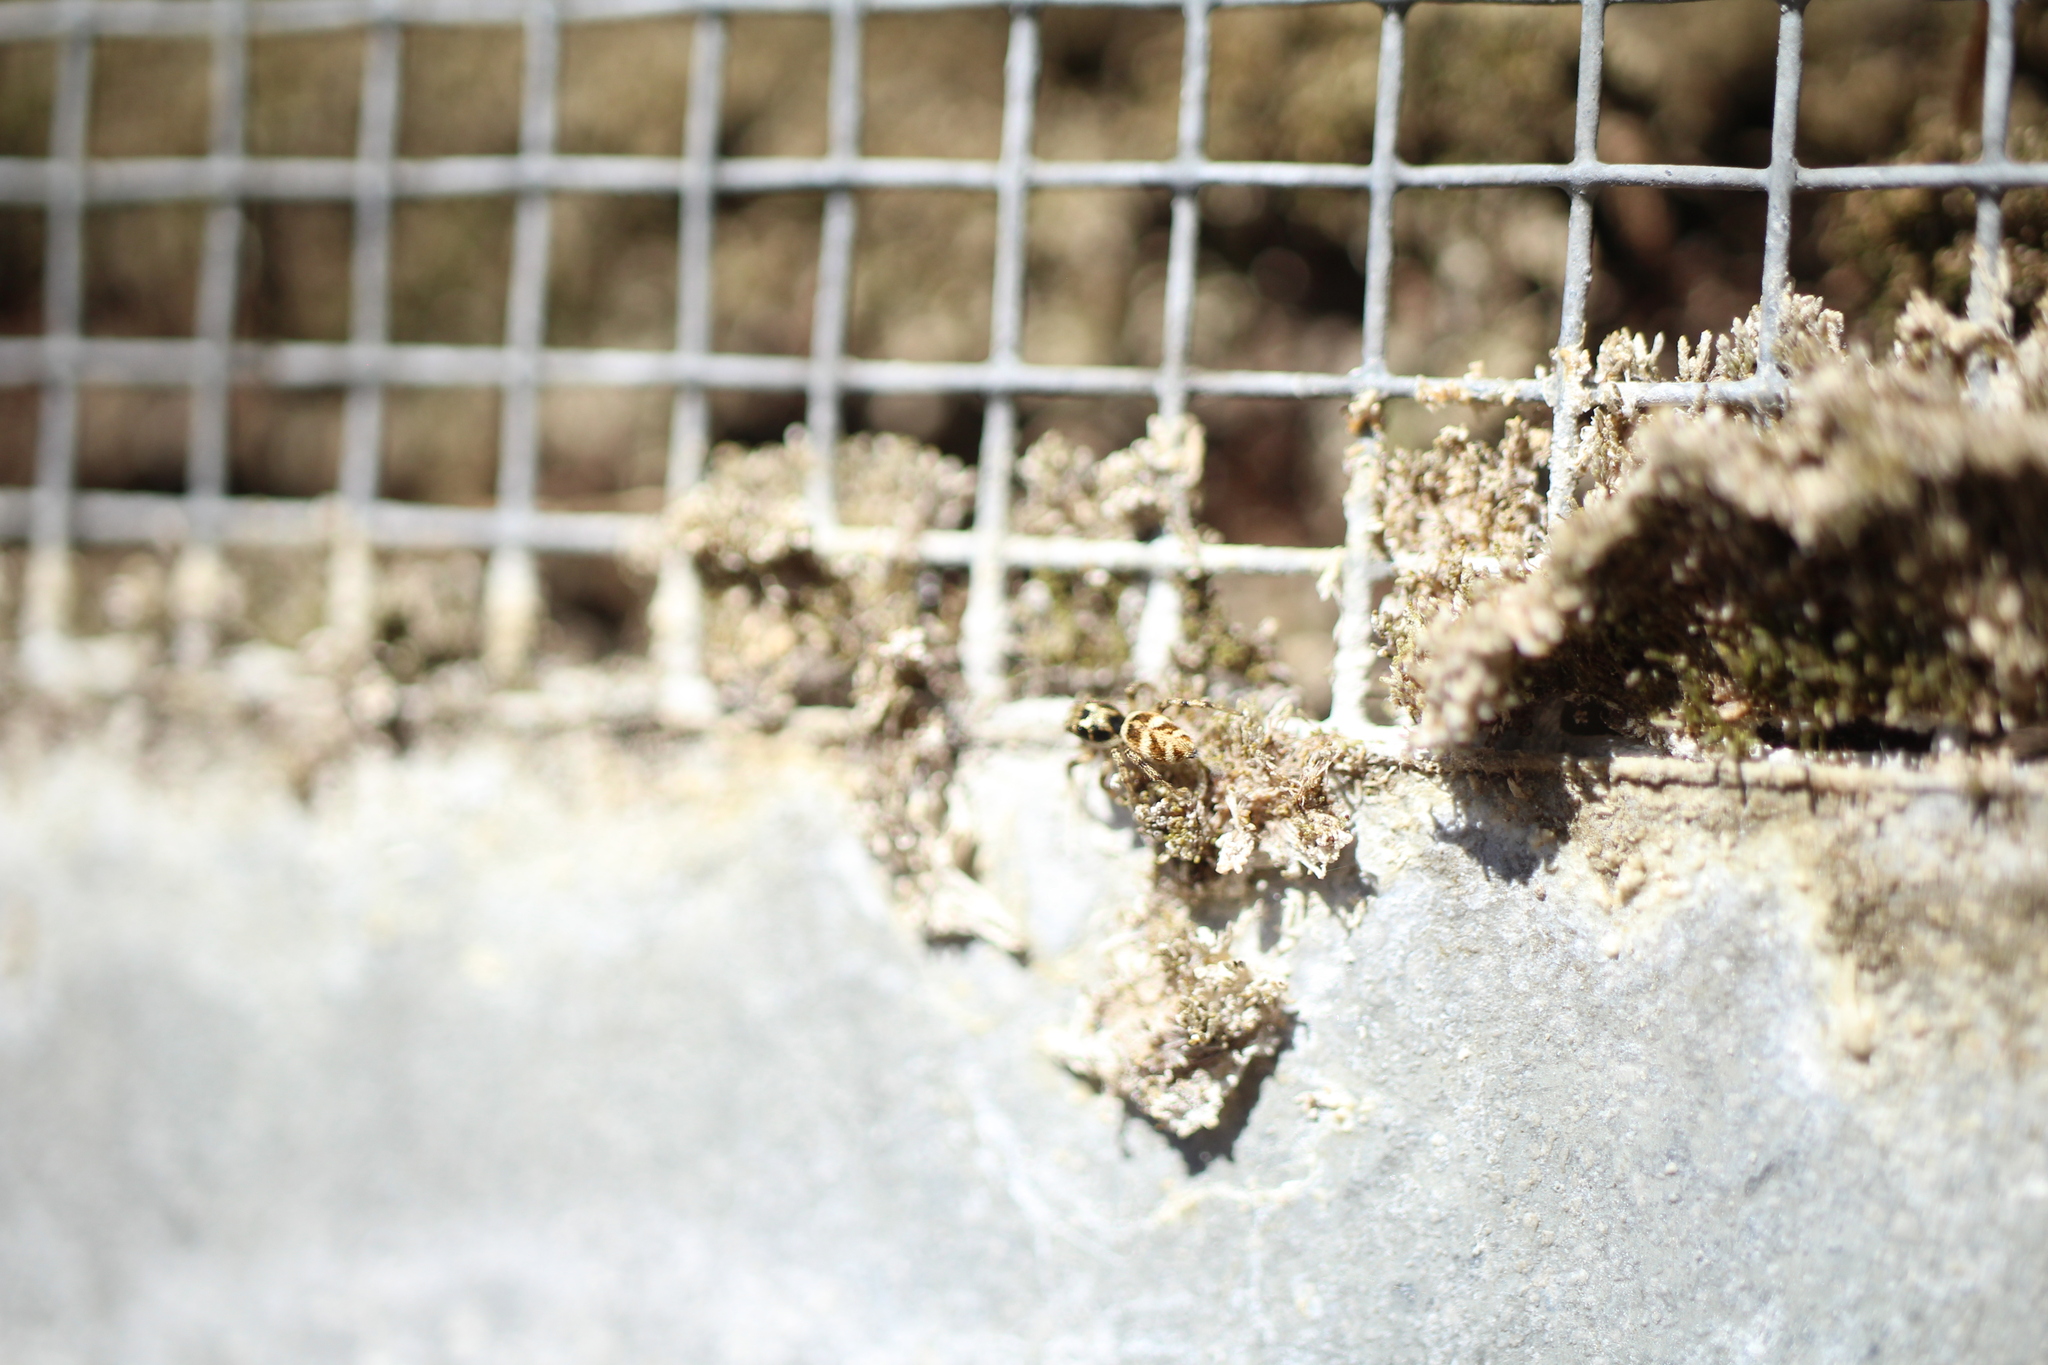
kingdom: Animalia
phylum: Arthropoda
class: Arachnida
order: Araneae
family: Salticidae
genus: Salticus
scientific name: Salticus scenicus
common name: Zebra jumper
